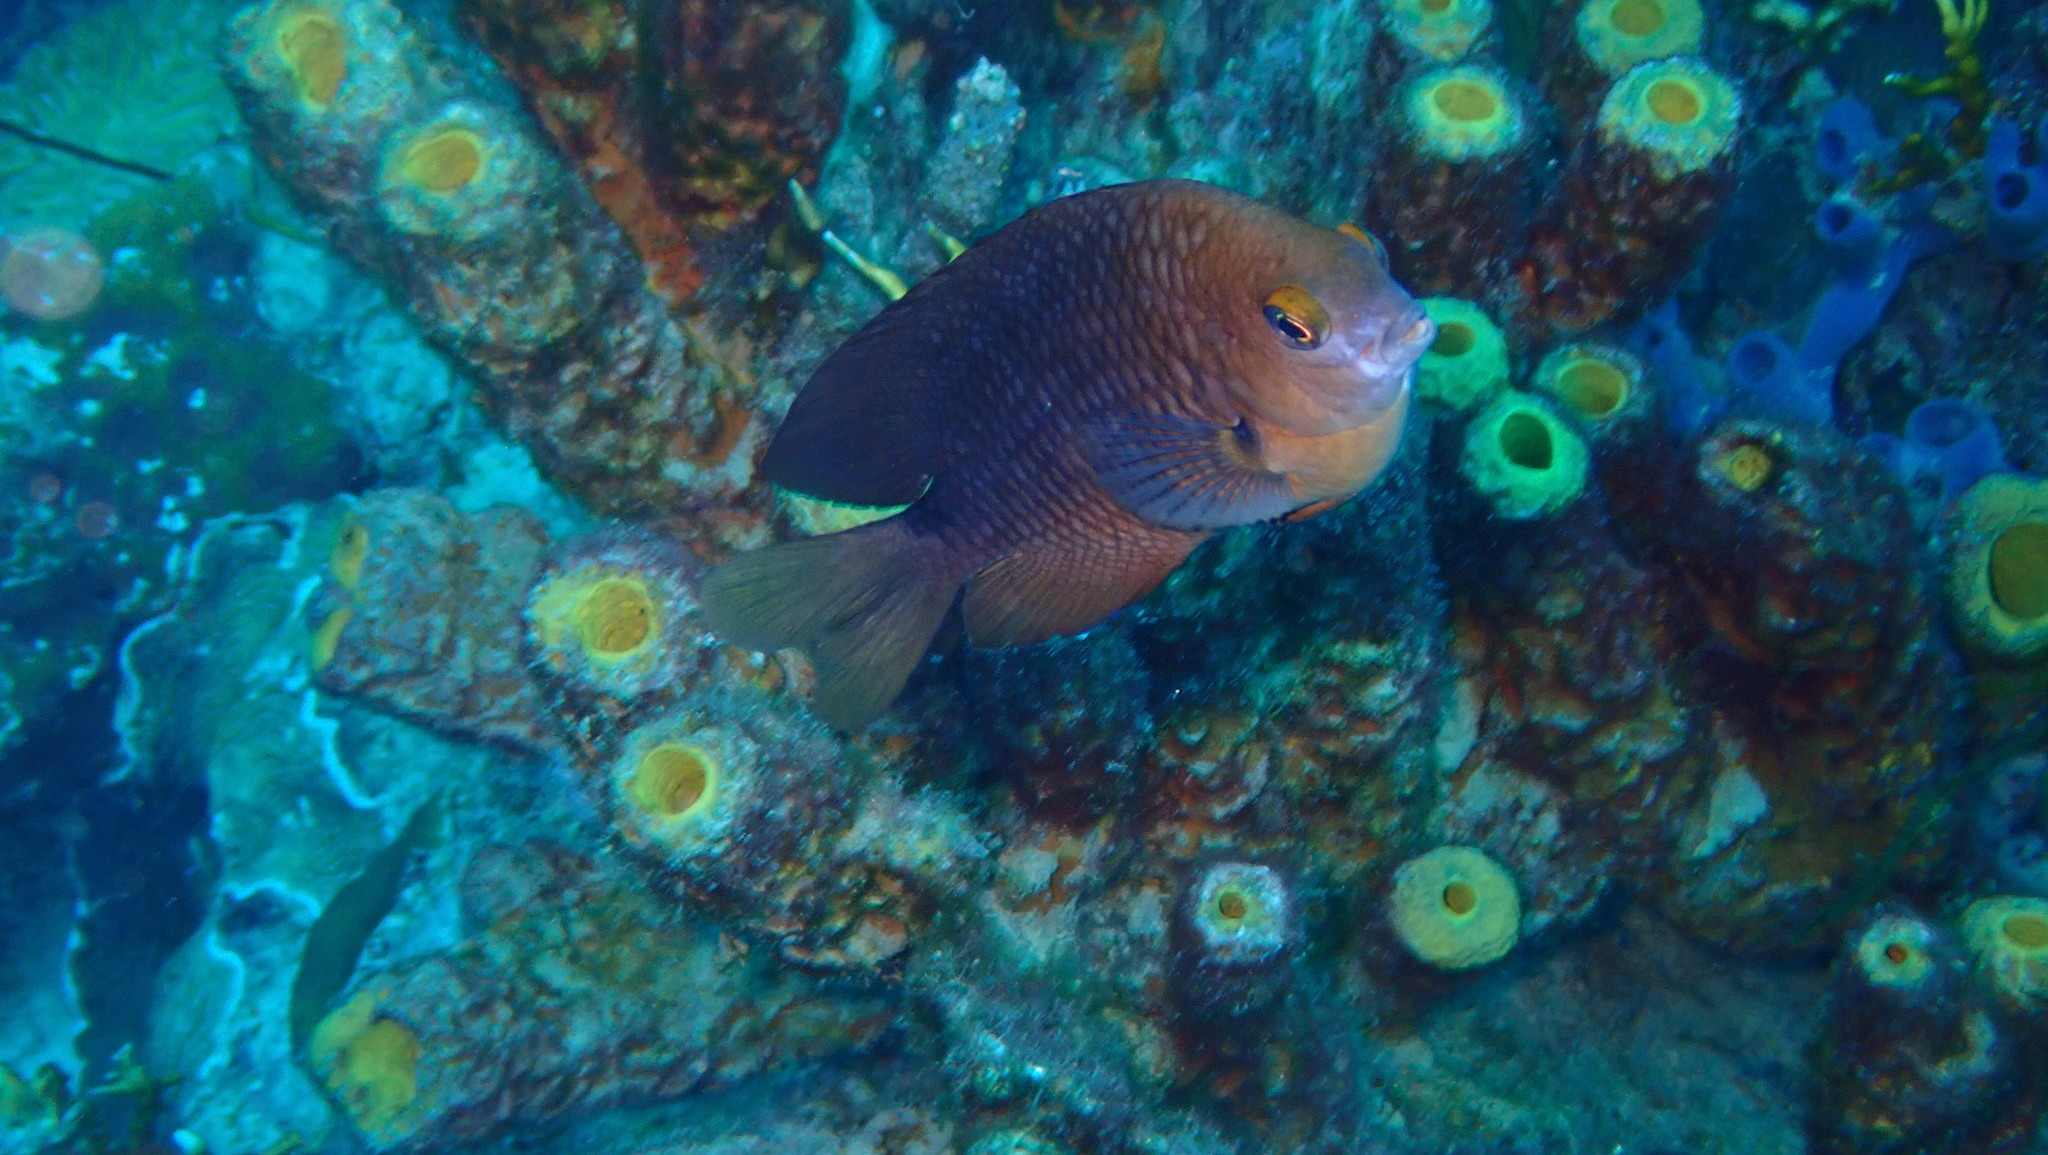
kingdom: Animalia
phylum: Chordata
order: Perciformes
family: Pomacentridae
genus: Stegastes
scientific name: Stegastes planifrons
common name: Threespot damselfish
